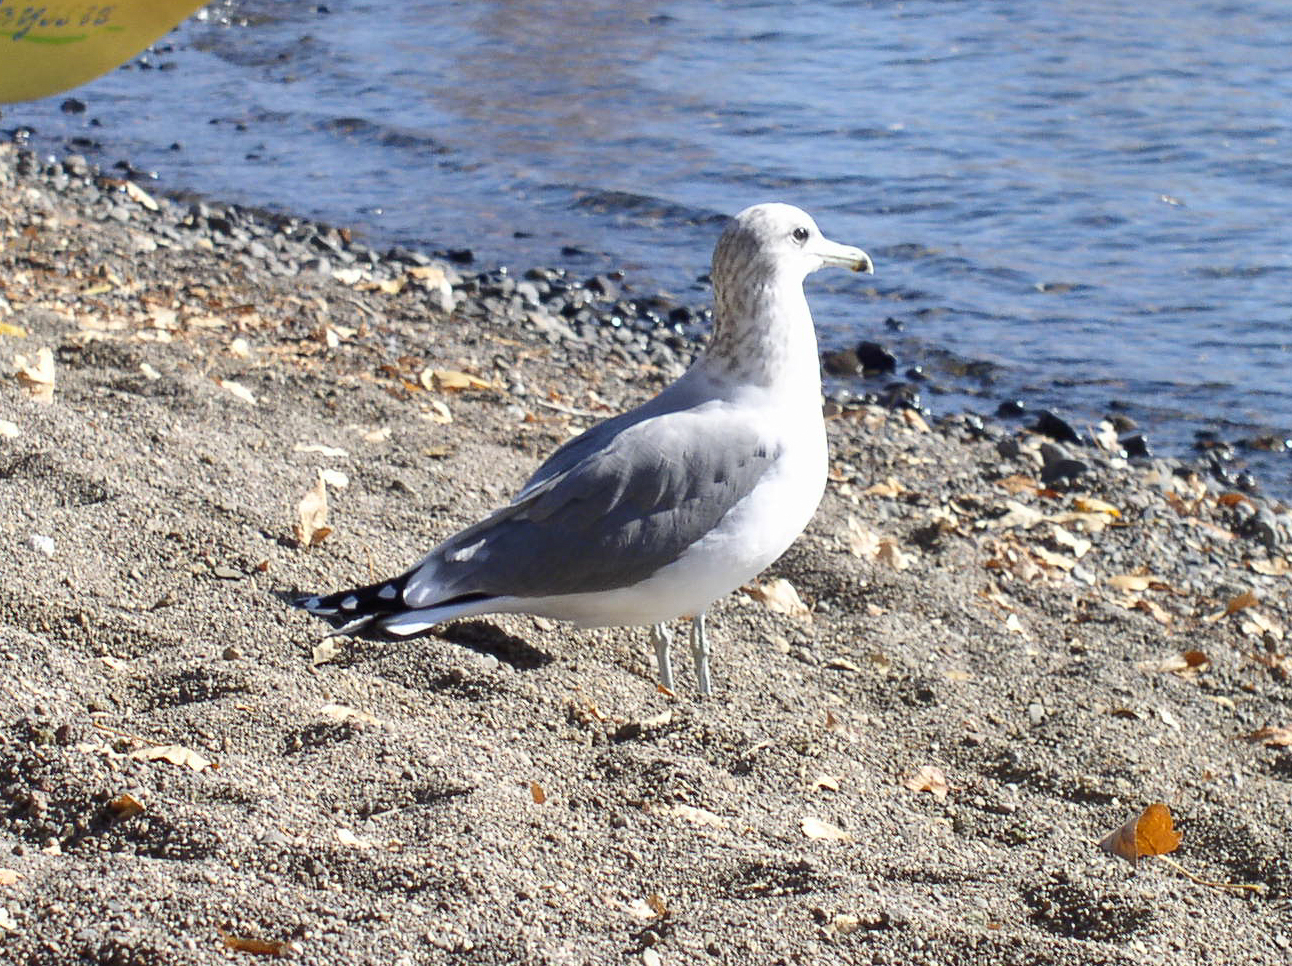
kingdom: Animalia
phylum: Chordata
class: Aves
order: Charadriiformes
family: Laridae
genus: Larus
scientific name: Larus californicus
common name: California gull
